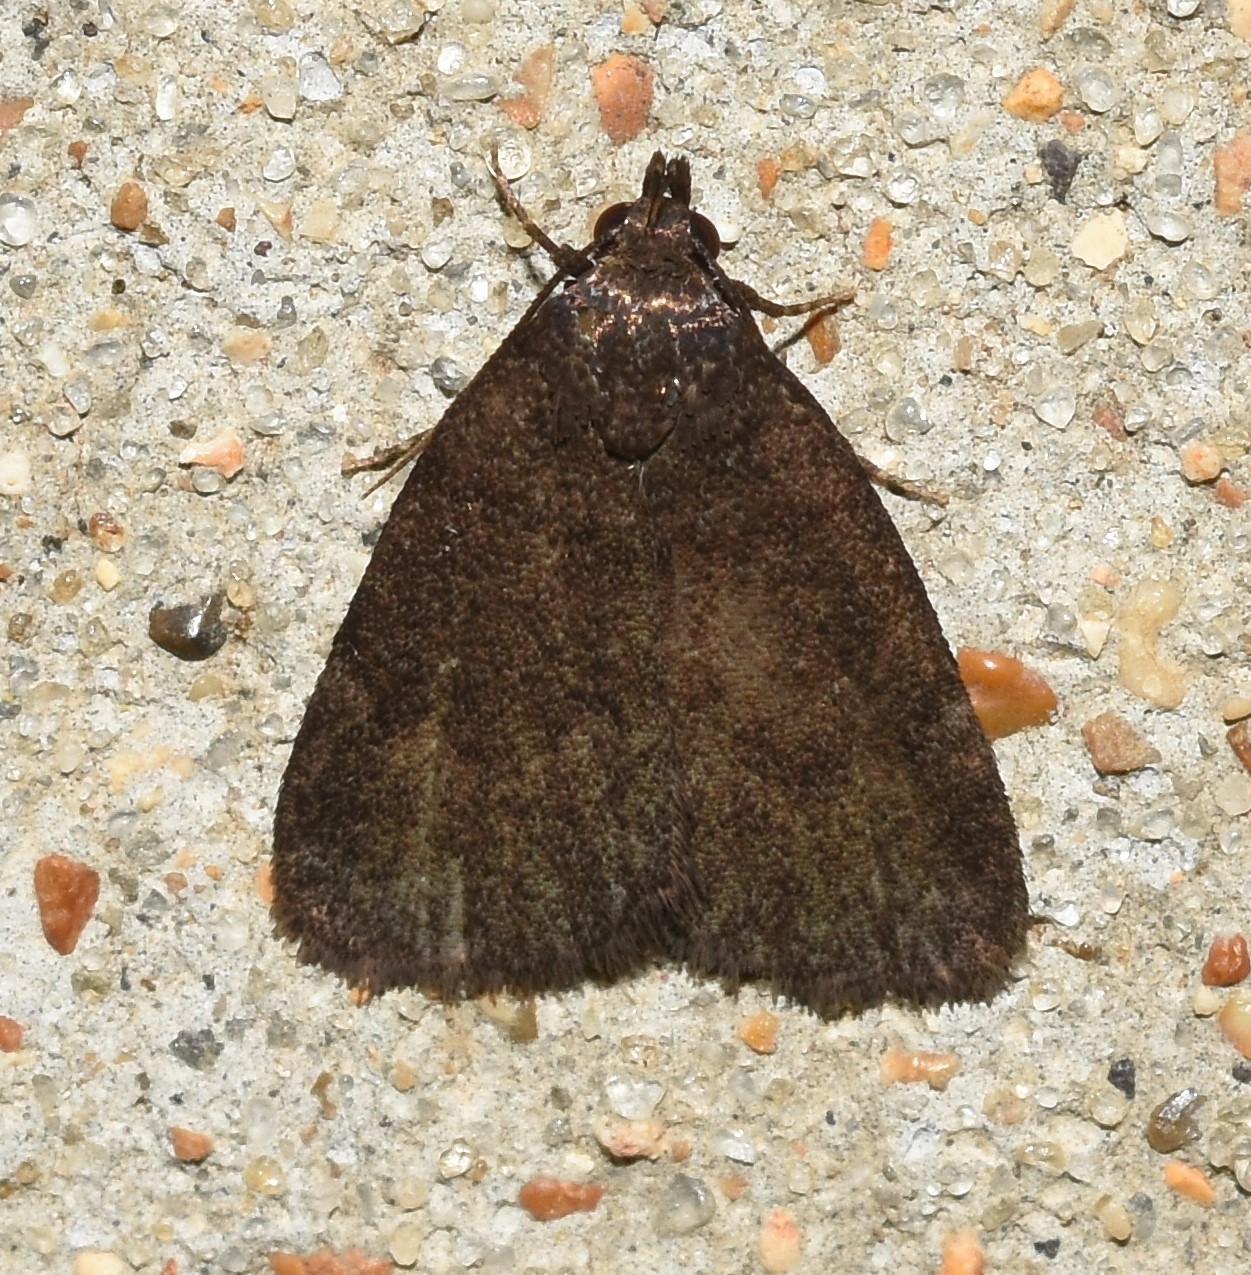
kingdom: Animalia
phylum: Arthropoda
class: Insecta
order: Lepidoptera
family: Erebidae
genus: Idia
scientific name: Idia rotundalis
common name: Rotund idia moth
